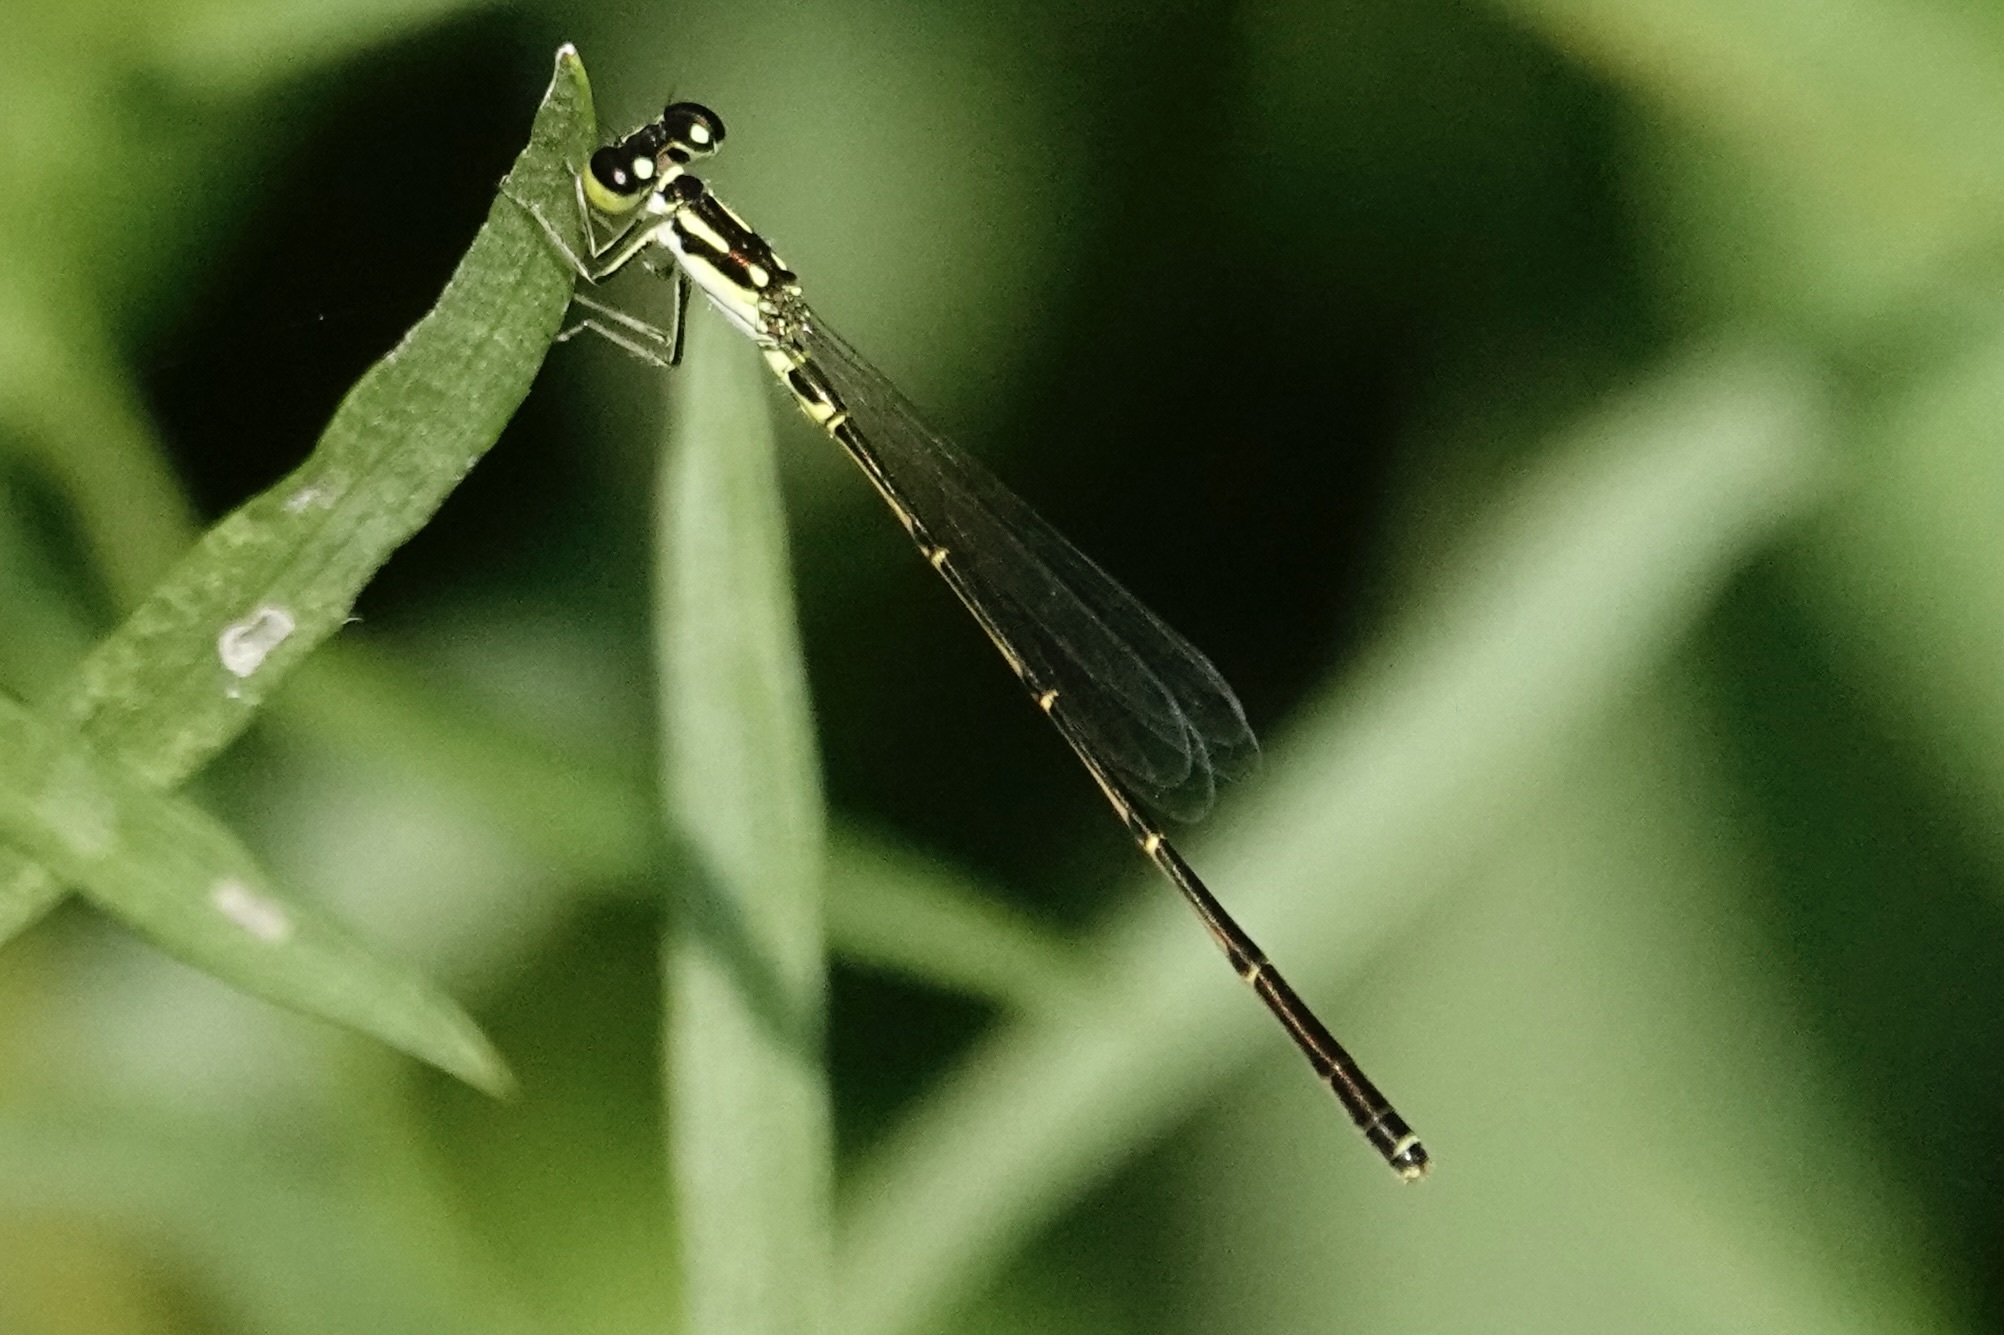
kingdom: Animalia
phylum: Arthropoda
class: Insecta
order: Odonata
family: Coenagrionidae
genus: Ischnura
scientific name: Ischnura posita
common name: Fragile forktail
